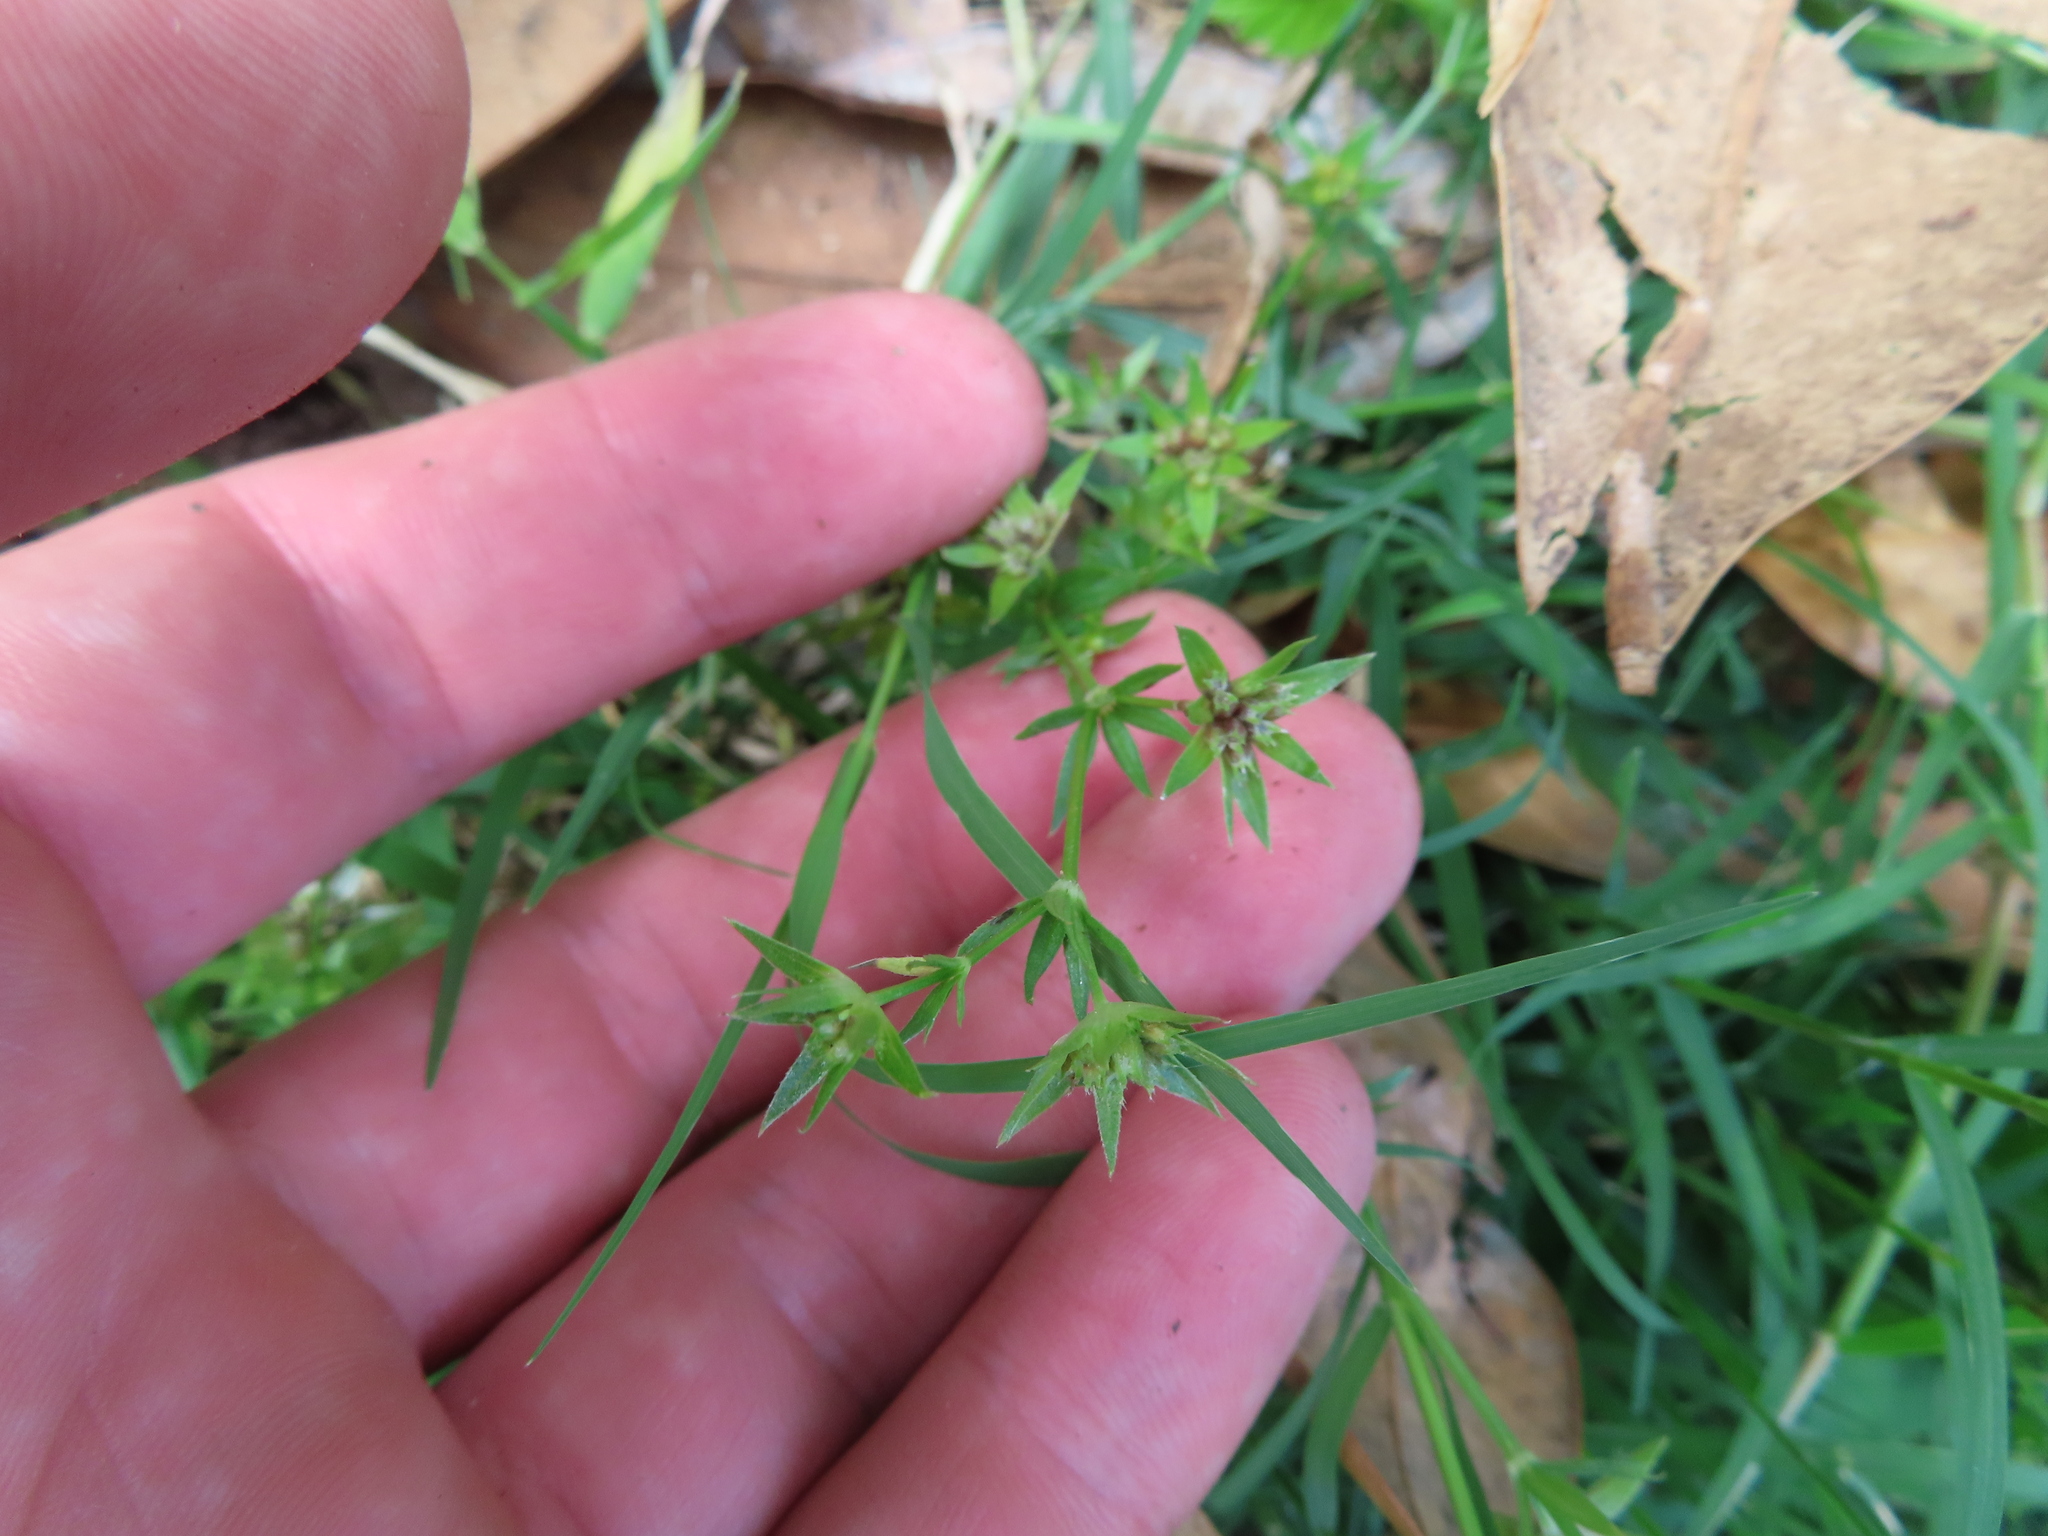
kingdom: Plantae
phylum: Tracheophyta
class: Magnoliopsida
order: Gentianales
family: Rubiaceae
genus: Sherardia
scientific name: Sherardia arvensis
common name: Field madder
